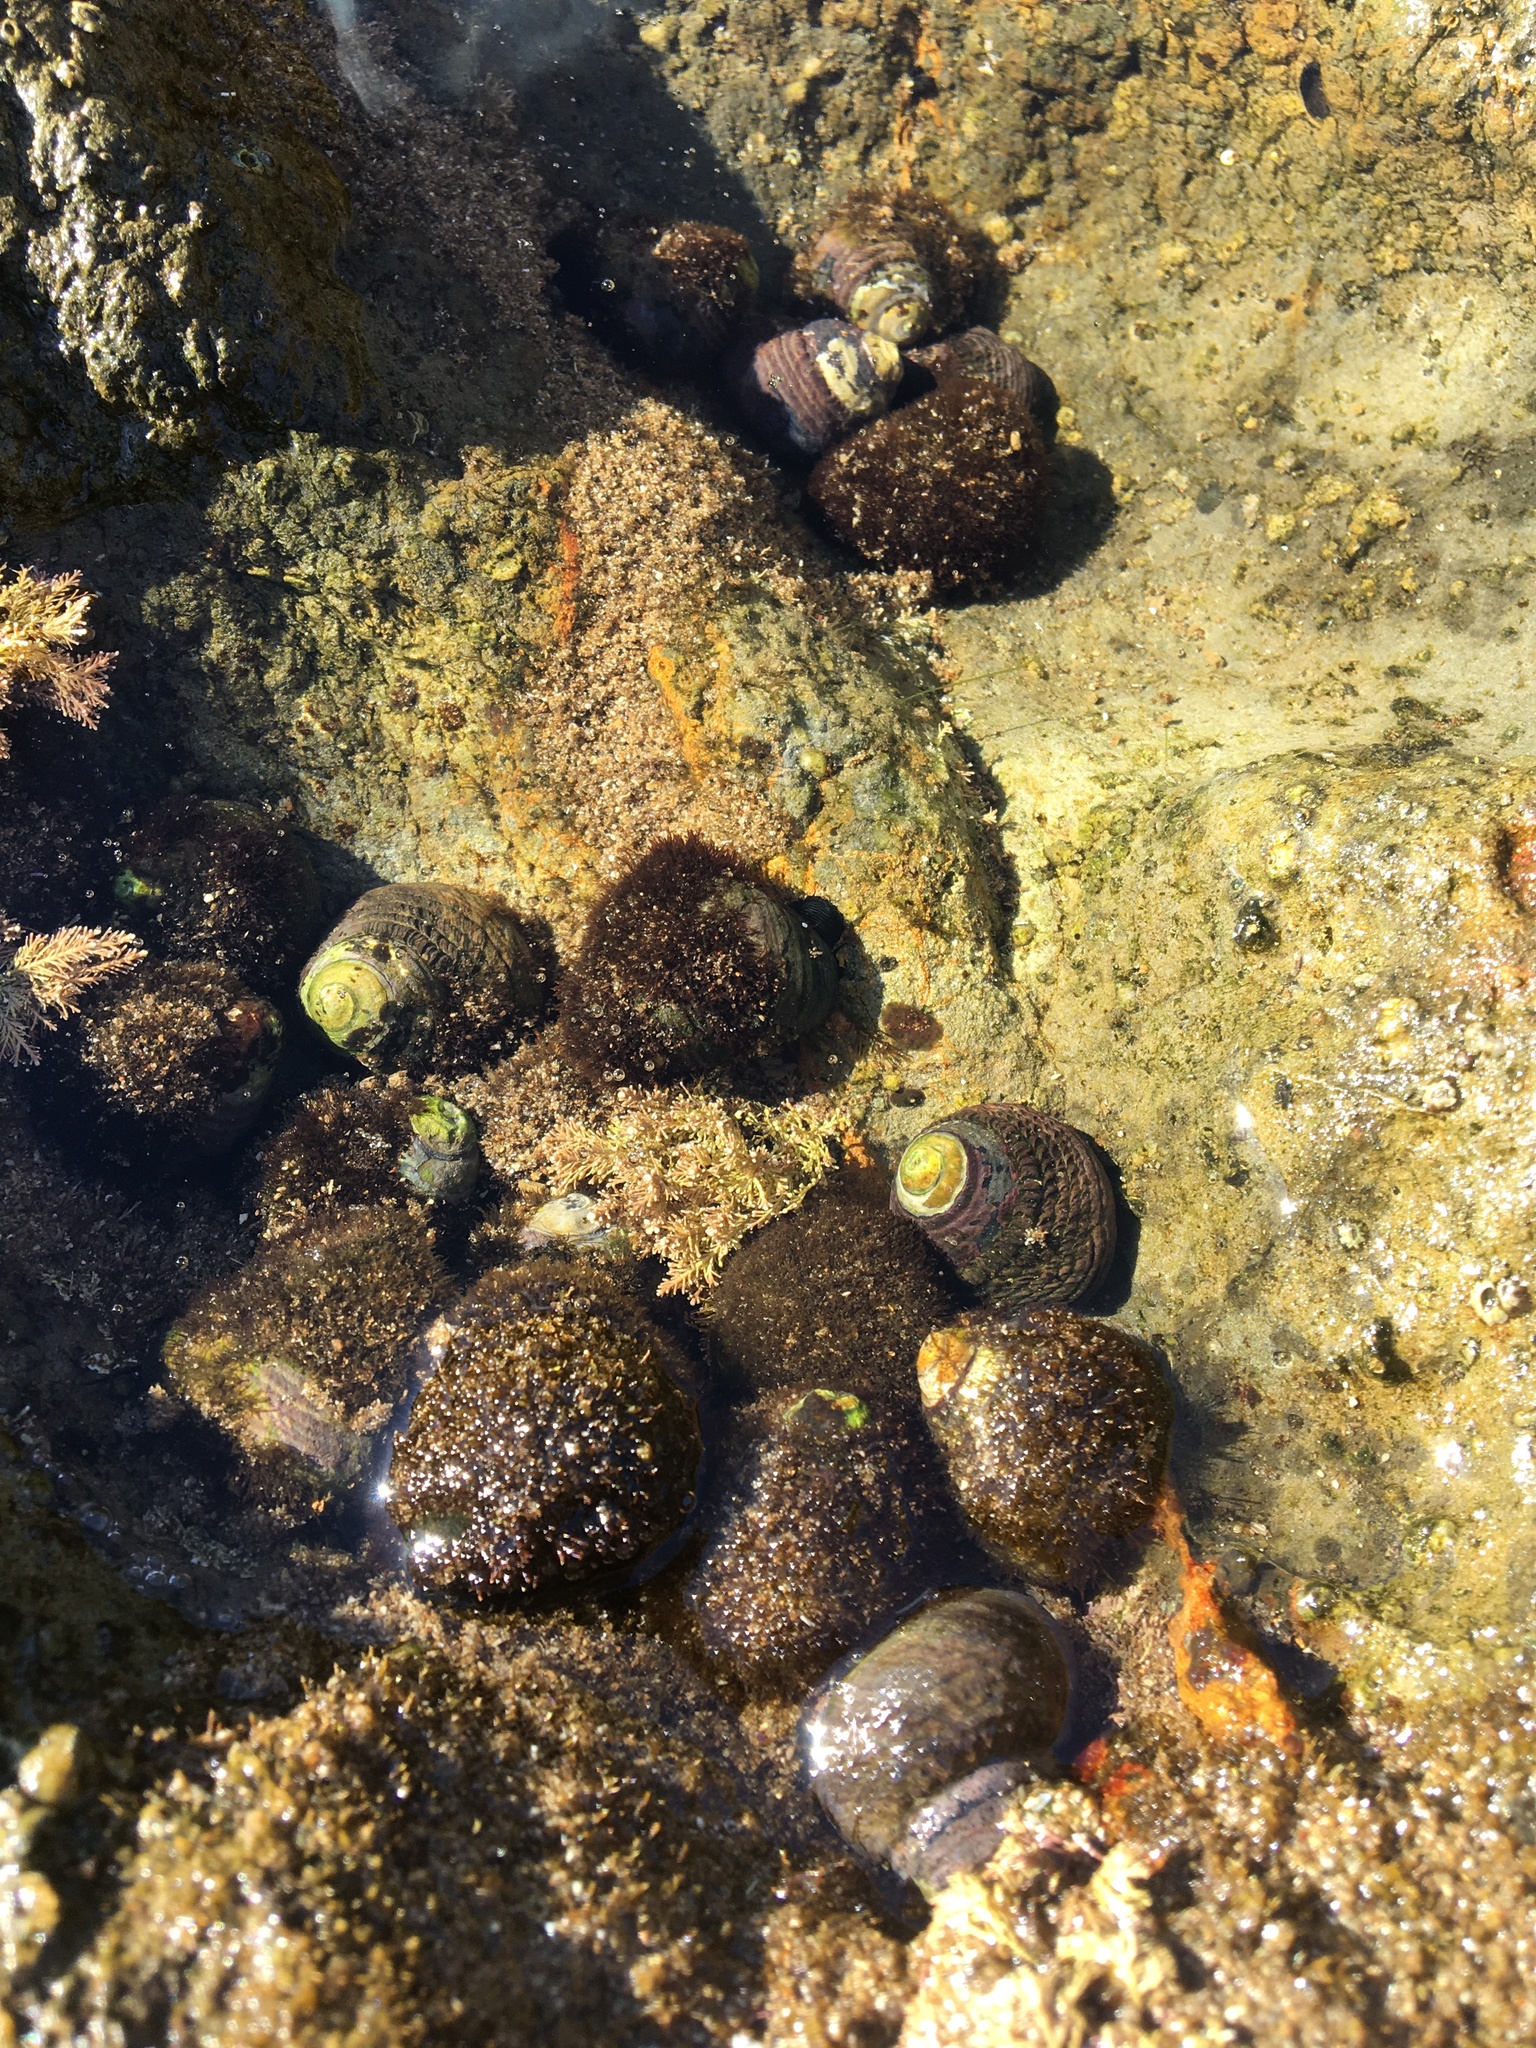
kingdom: Animalia
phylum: Mollusca
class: Gastropoda
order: Trochida
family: Tegulidae
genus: Tegula
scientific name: Tegula funebralis
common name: Black tegula
